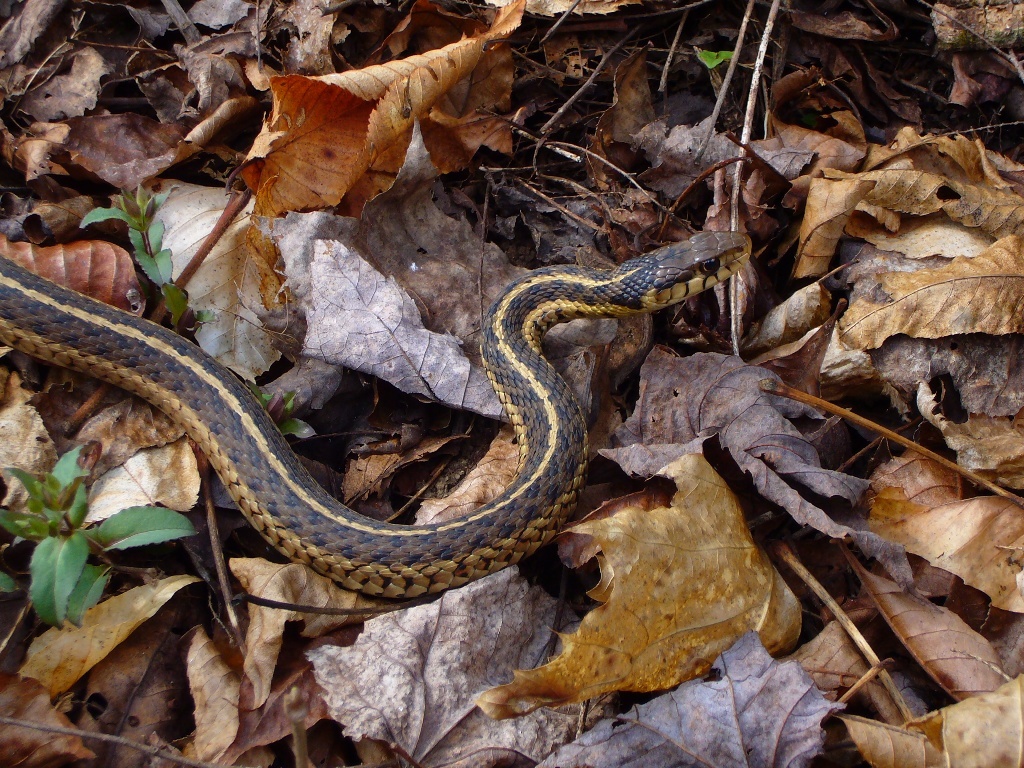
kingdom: Animalia
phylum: Chordata
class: Squamata
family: Colubridae
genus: Thamnophis
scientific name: Thamnophis sirtalis
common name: Common garter snake
